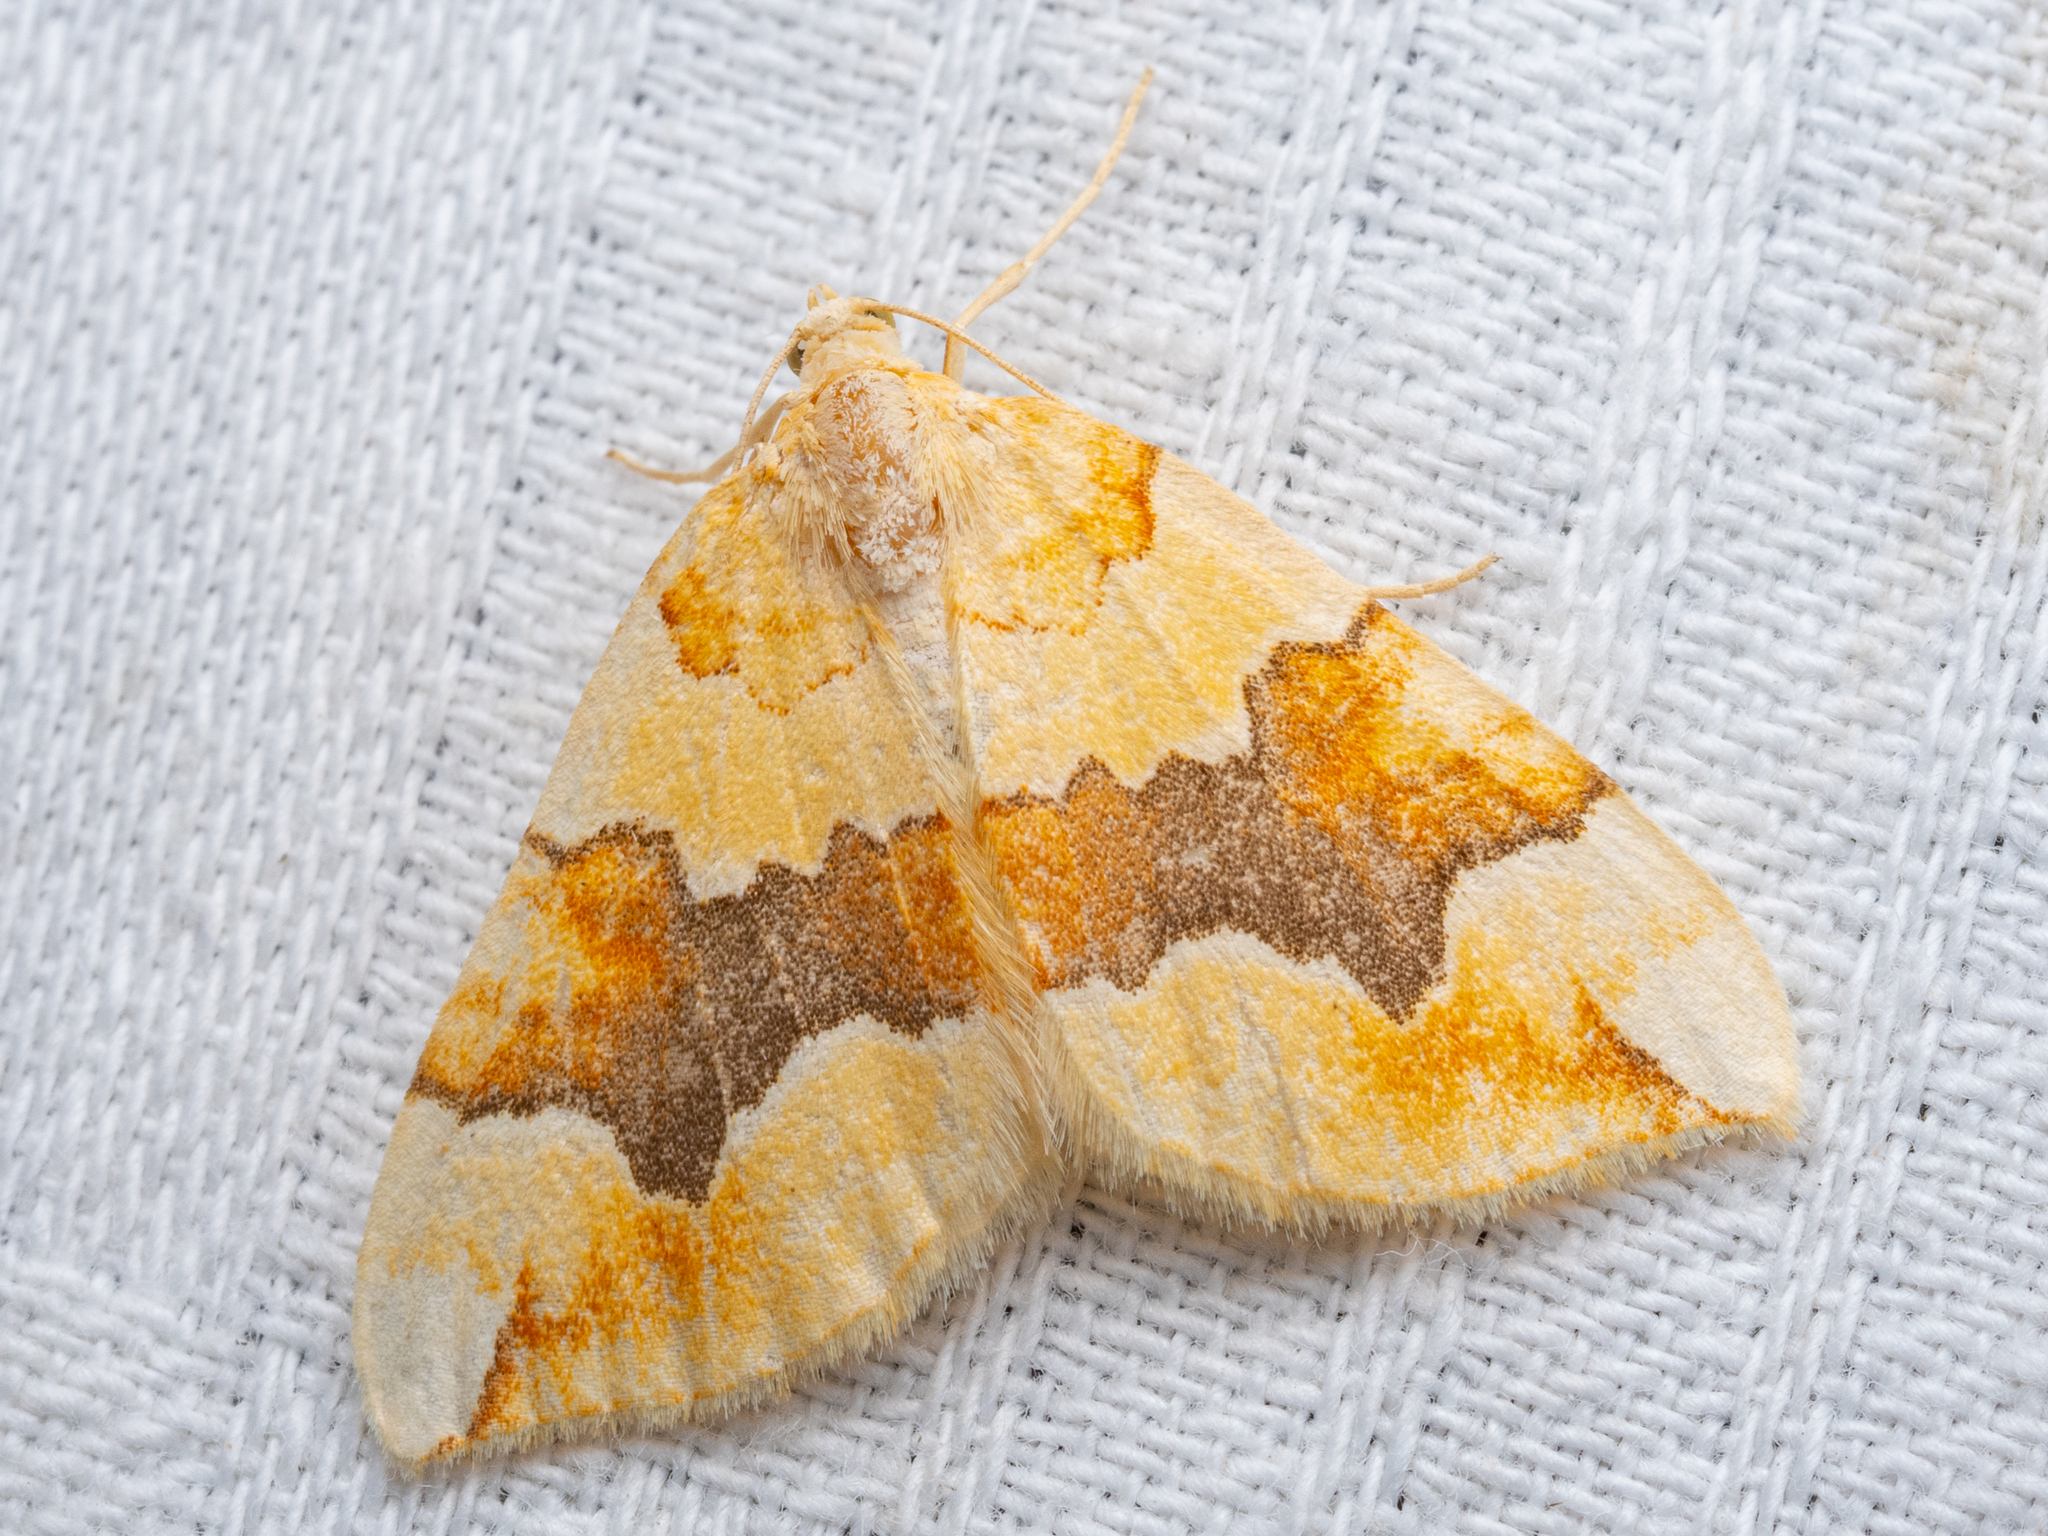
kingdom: Animalia
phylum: Arthropoda
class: Insecta
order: Lepidoptera
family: Geometridae
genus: Cidaria
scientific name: Cidaria fulvata
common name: Barred yellow
